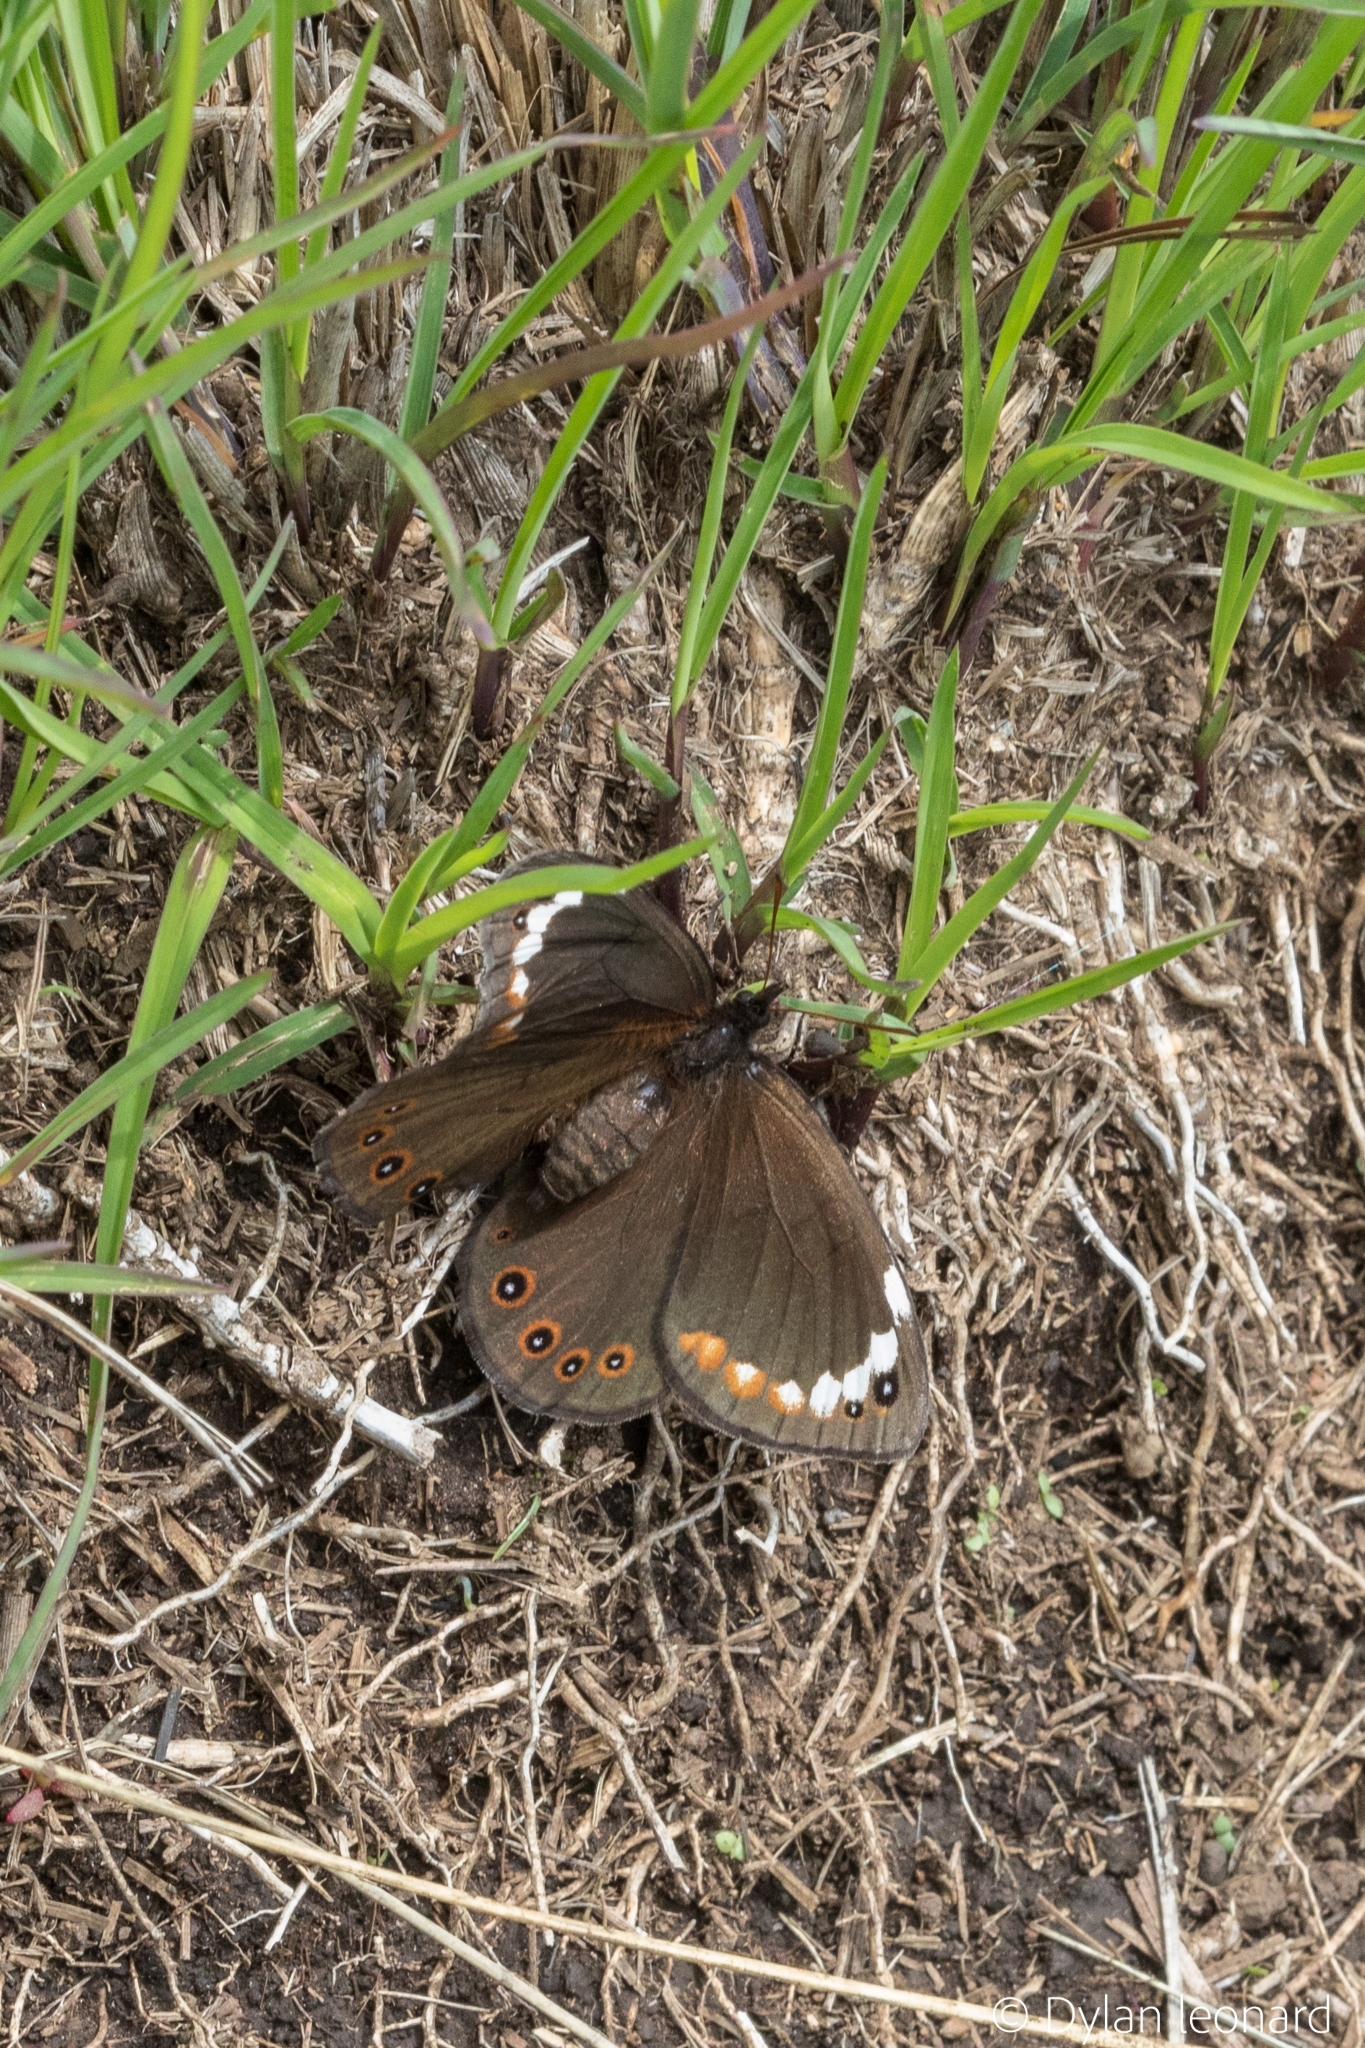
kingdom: Animalia
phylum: Arthropoda
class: Insecta
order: Lepidoptera
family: Nymphalidae
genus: Serradinga
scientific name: Serradinga bowkeri
